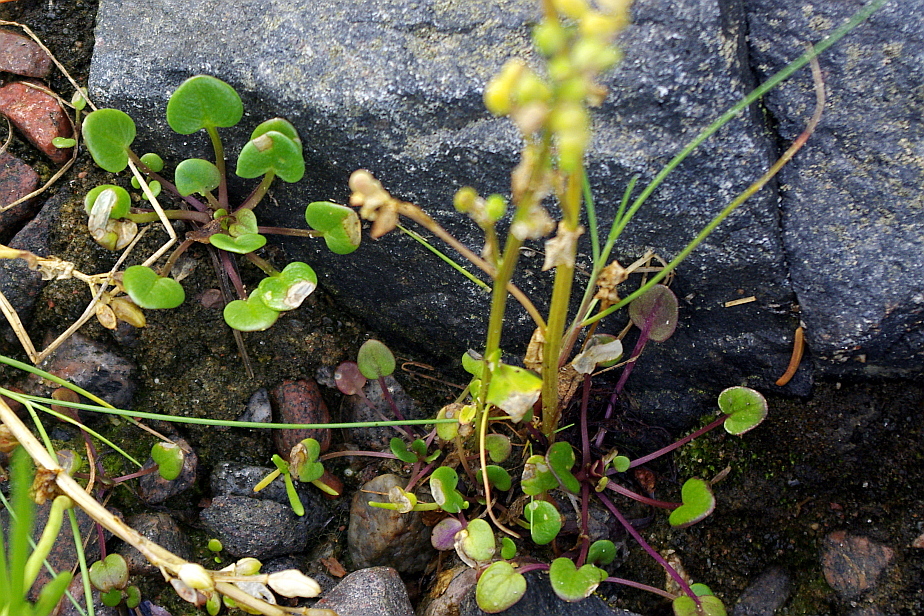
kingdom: Plantae
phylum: Tracheophyta
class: Magnoliopsida
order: Brassicales
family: Brassicaceae
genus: Cochlearia
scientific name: Cochlearia groenlandica
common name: Danish scurvygrass
